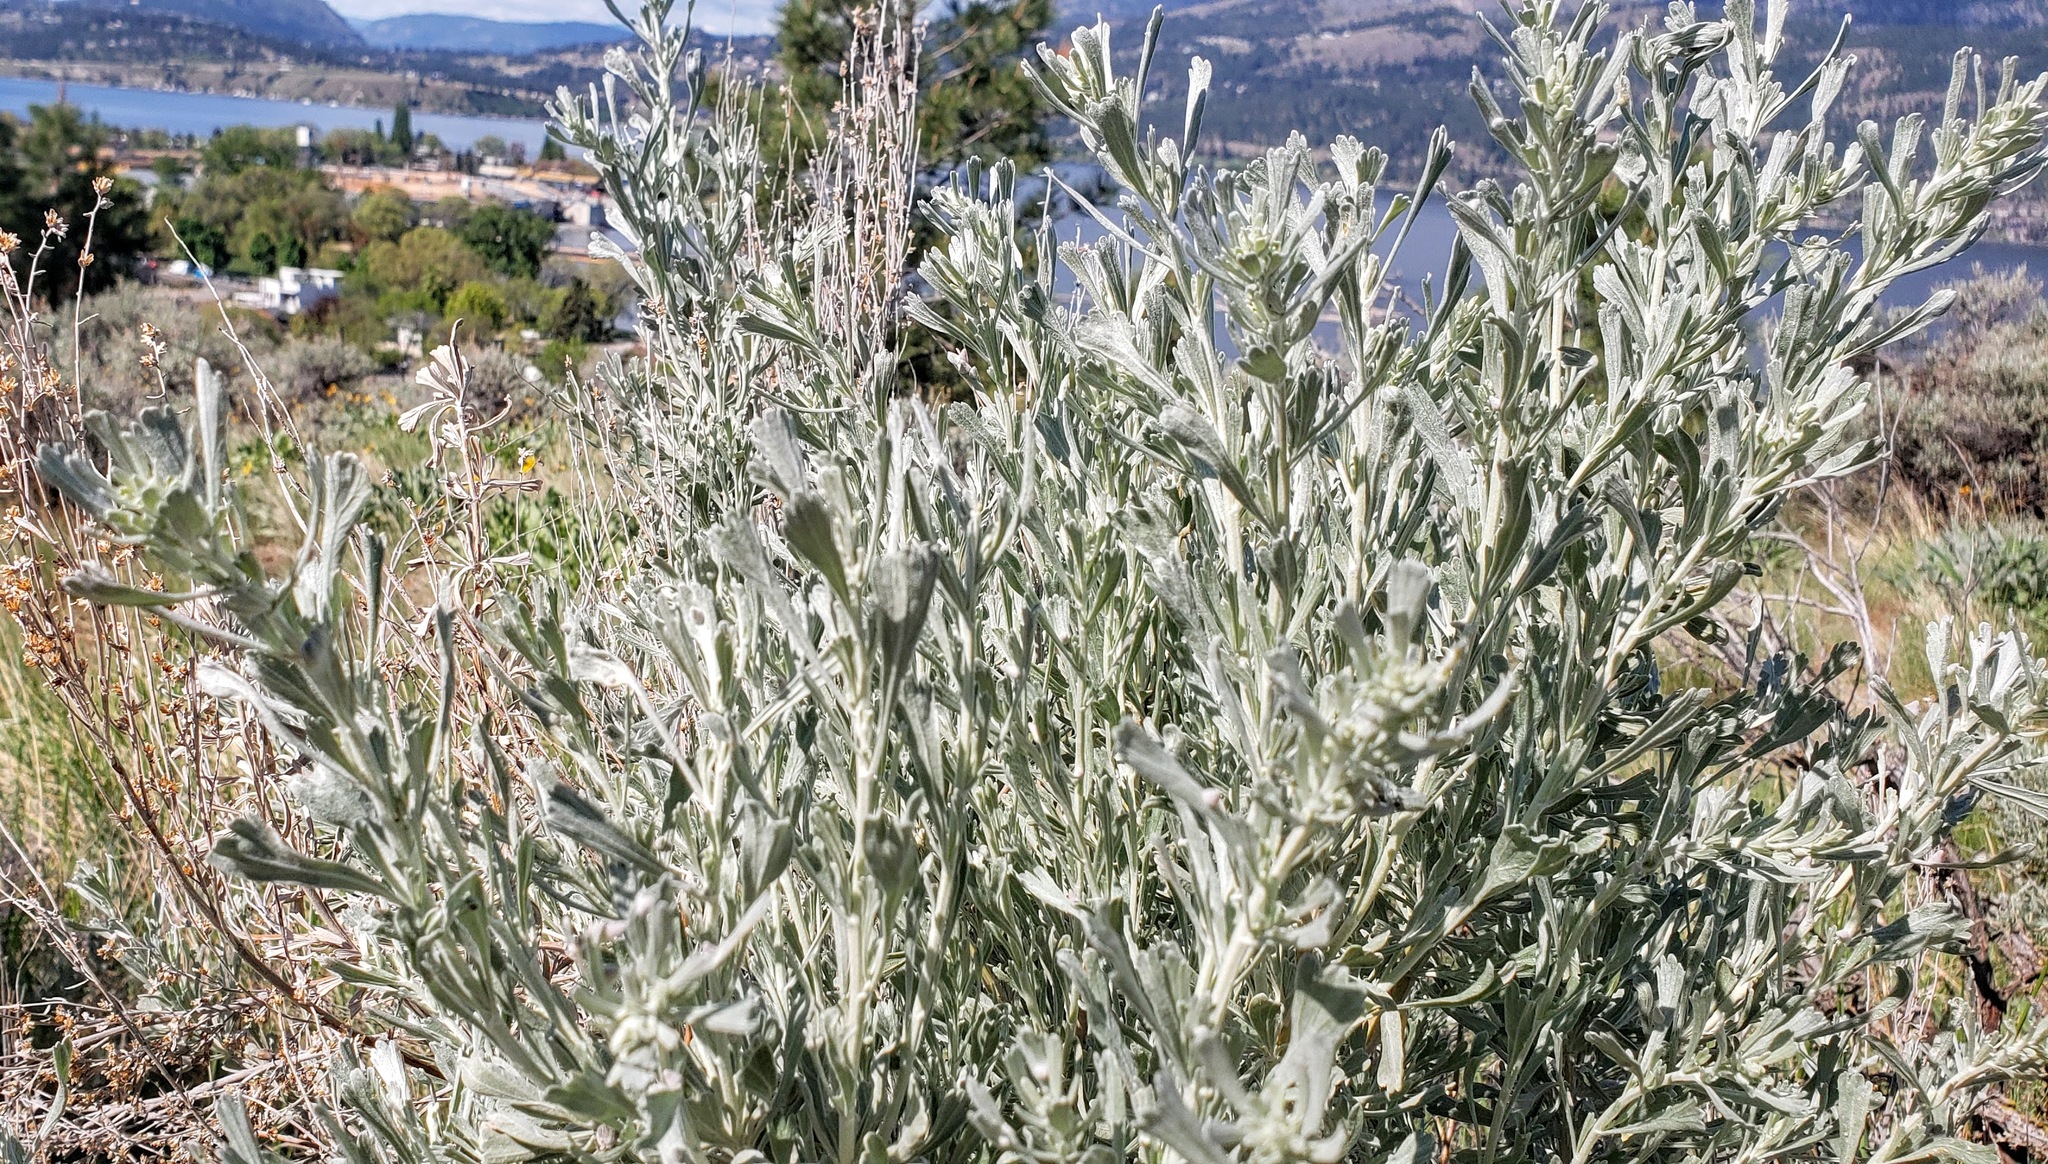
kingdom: Plantae
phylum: Tracheophyta
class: Magnoliopsida
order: Asterales
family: Asteraceae
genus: Artemisia
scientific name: Artemisia tridentata
